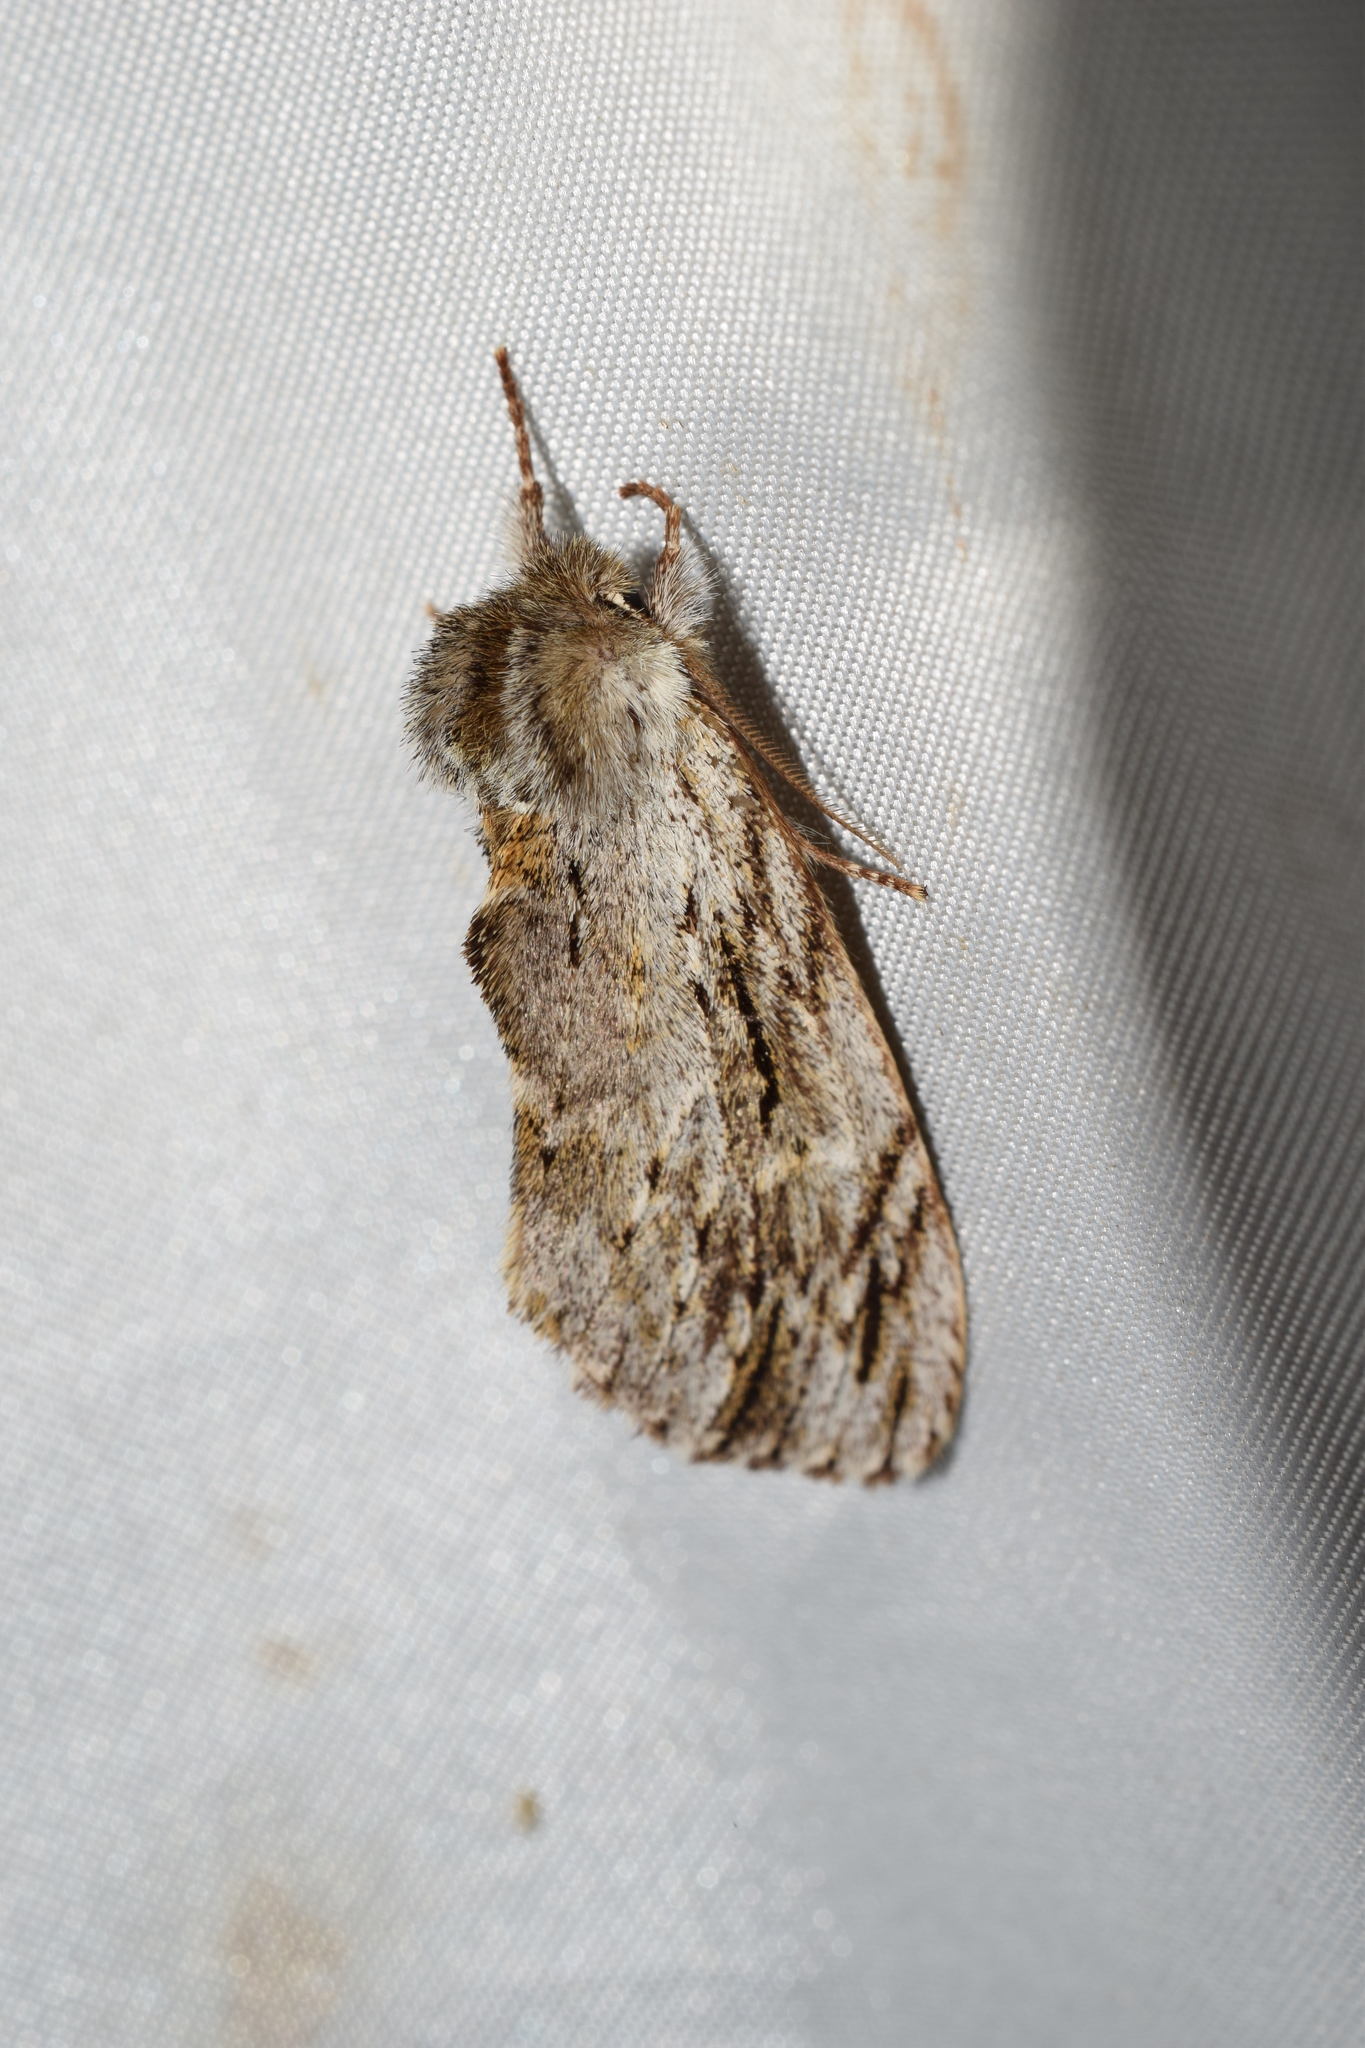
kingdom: Animalia
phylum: Arthropoda
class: Insecta
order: Lepidoptera
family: Notodontidae
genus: Ptilodon
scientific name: Ptilodon grisea
